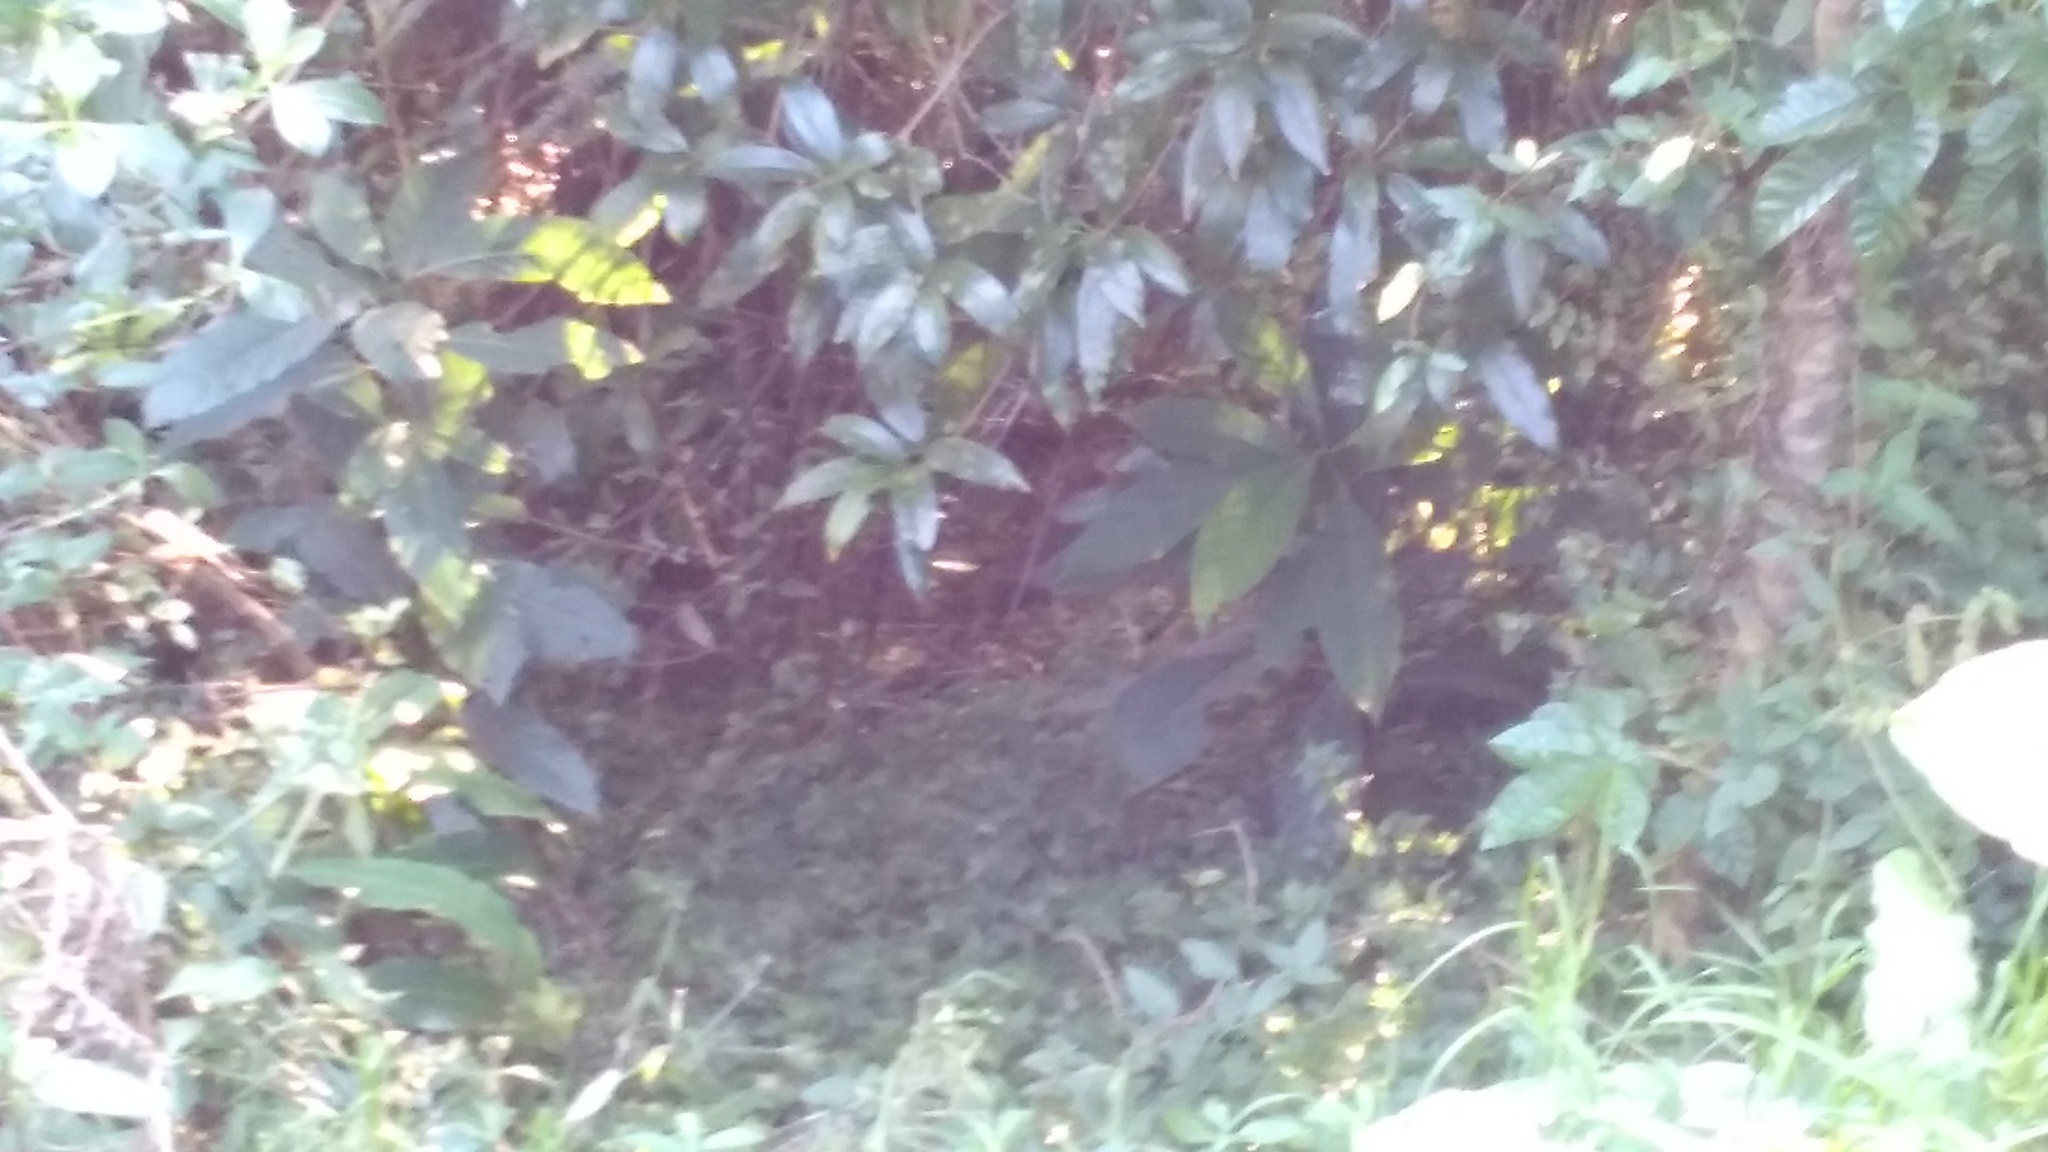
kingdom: Plantae
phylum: Tracheophyta
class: Magnoliopsida
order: Laurales
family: Lauraceae
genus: Persea
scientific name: Persea americana
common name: Avocado
